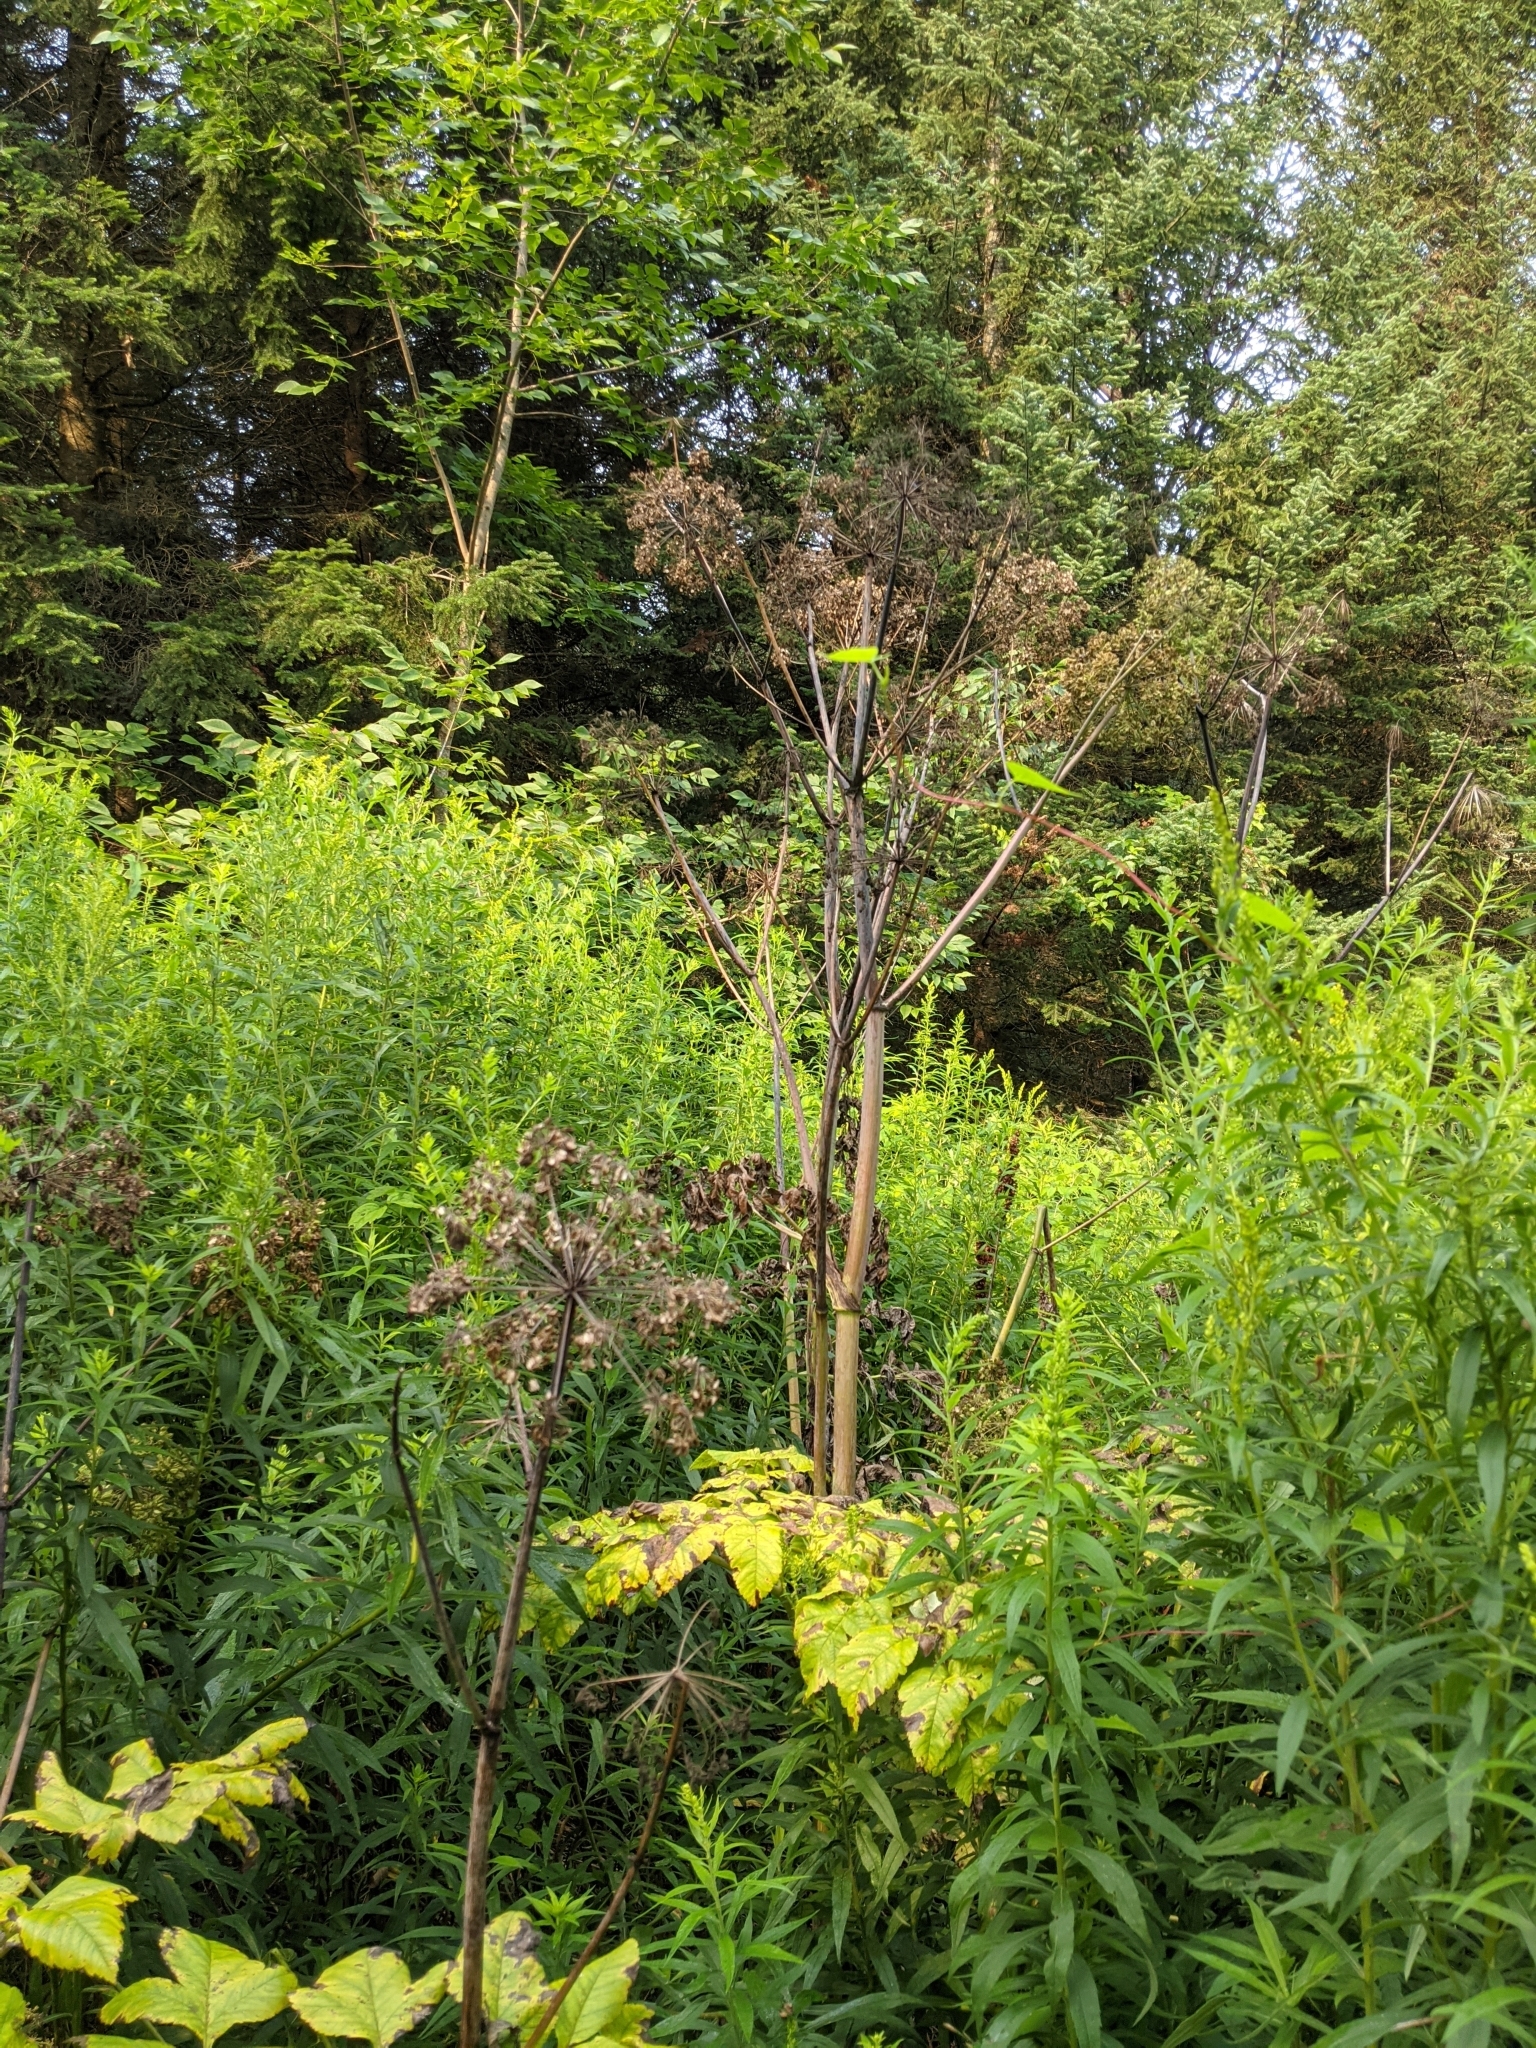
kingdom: Plantae
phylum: Tracheophyta
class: Magnoliopsida
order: Apiales
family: Apiaceae
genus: Angelica
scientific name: Angelica atropurpurea
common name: Great angelica
